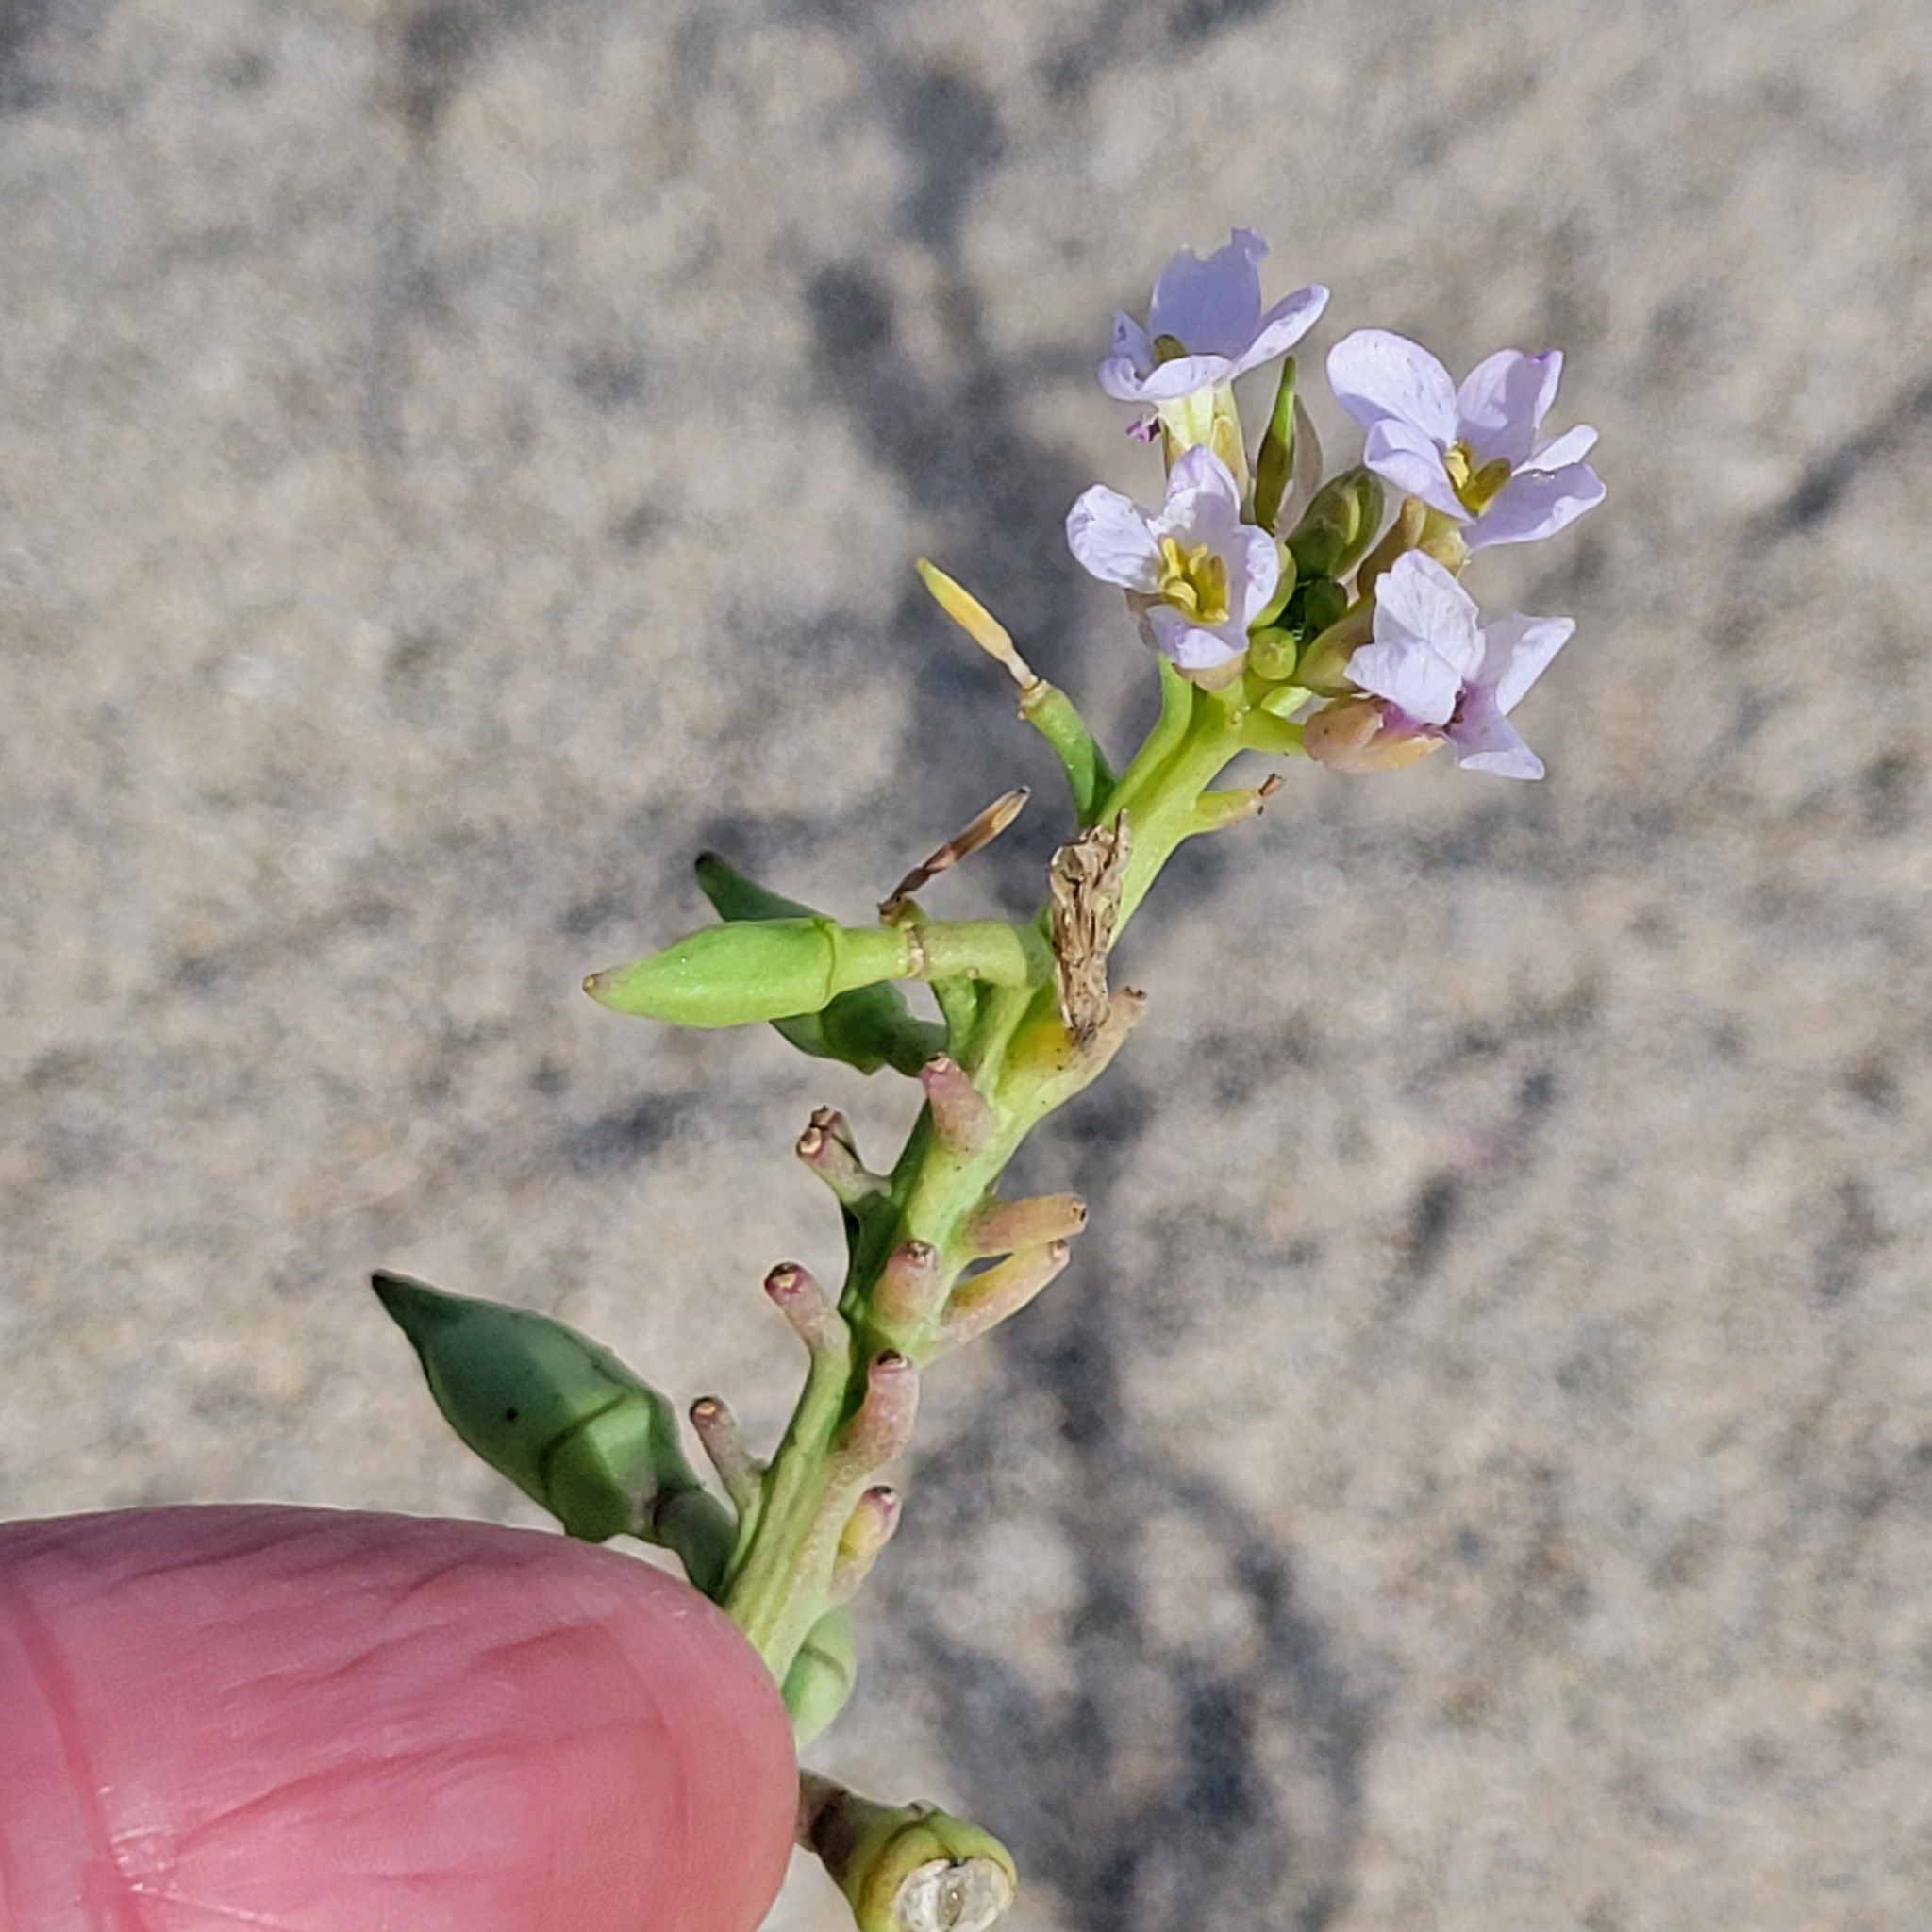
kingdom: Plantae
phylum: Tracheophyta
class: Magnoliopsida
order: Brassicales
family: Brassicaceae
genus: Cakile
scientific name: Cakile maritima
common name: Sea rocket
